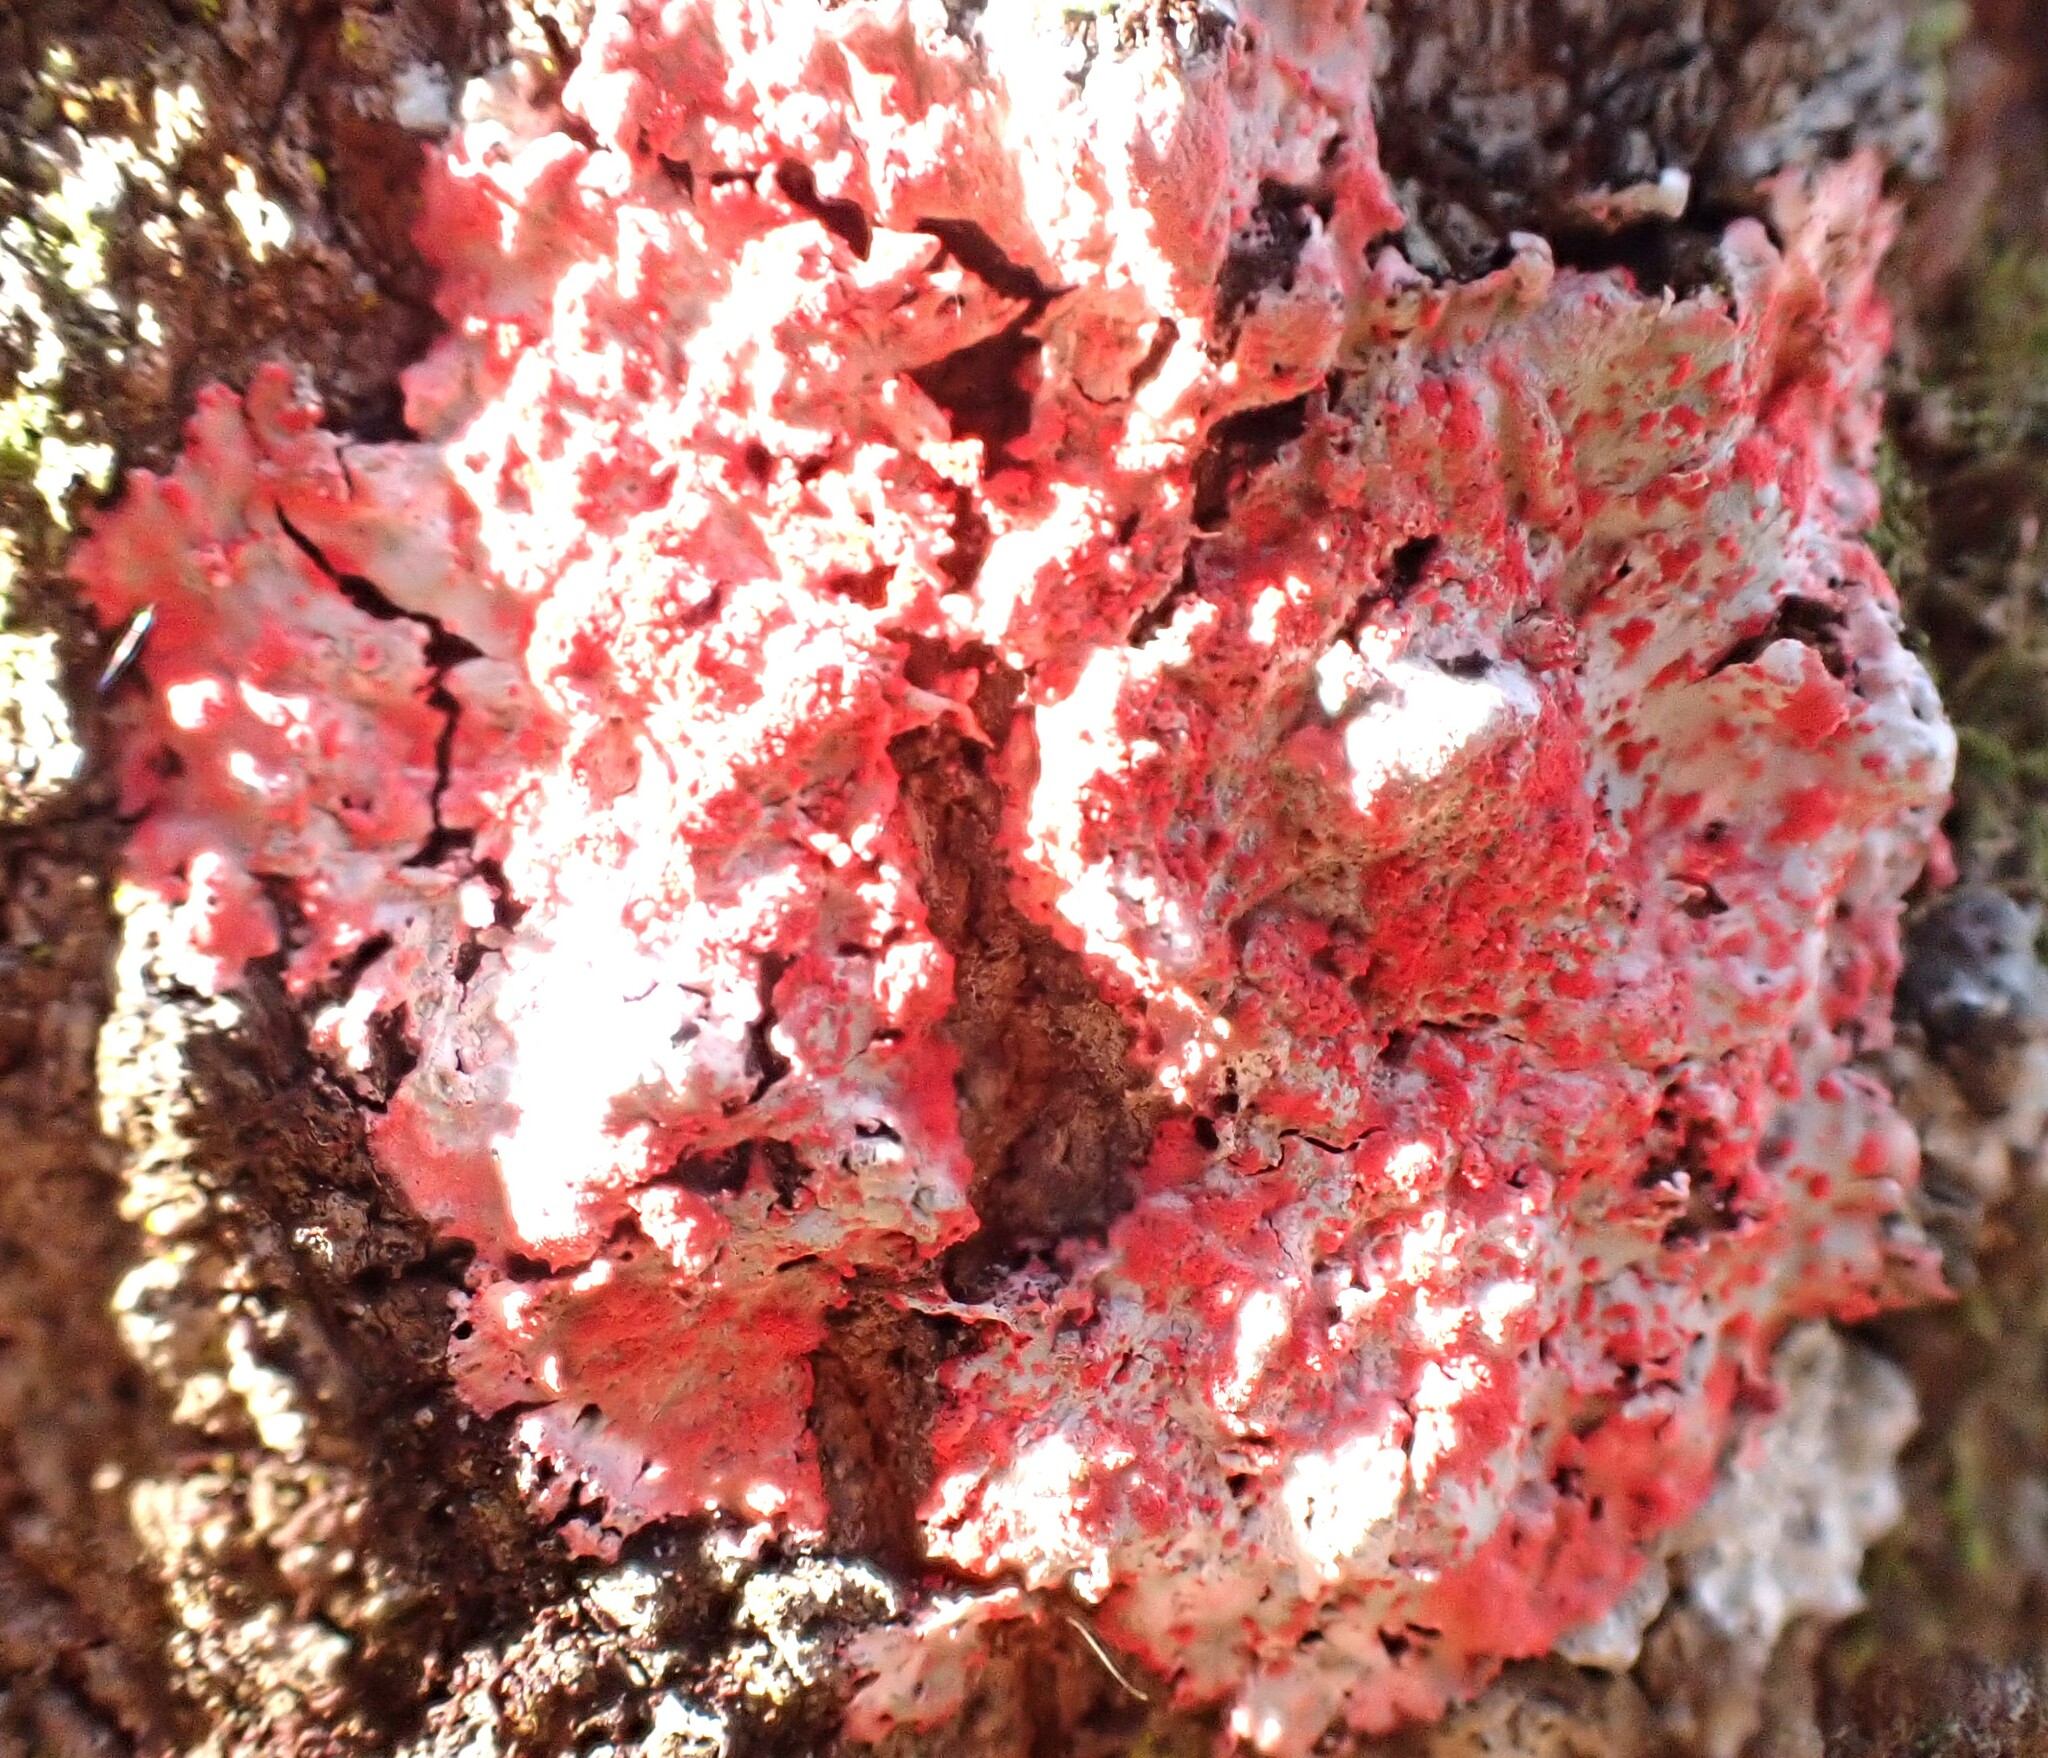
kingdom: Fungi
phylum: Ascomycota
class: Arthoniomycetes
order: Arthoniales
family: Arthoniaceae
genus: Herpothallon
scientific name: Herpothallon rubrocinctum
